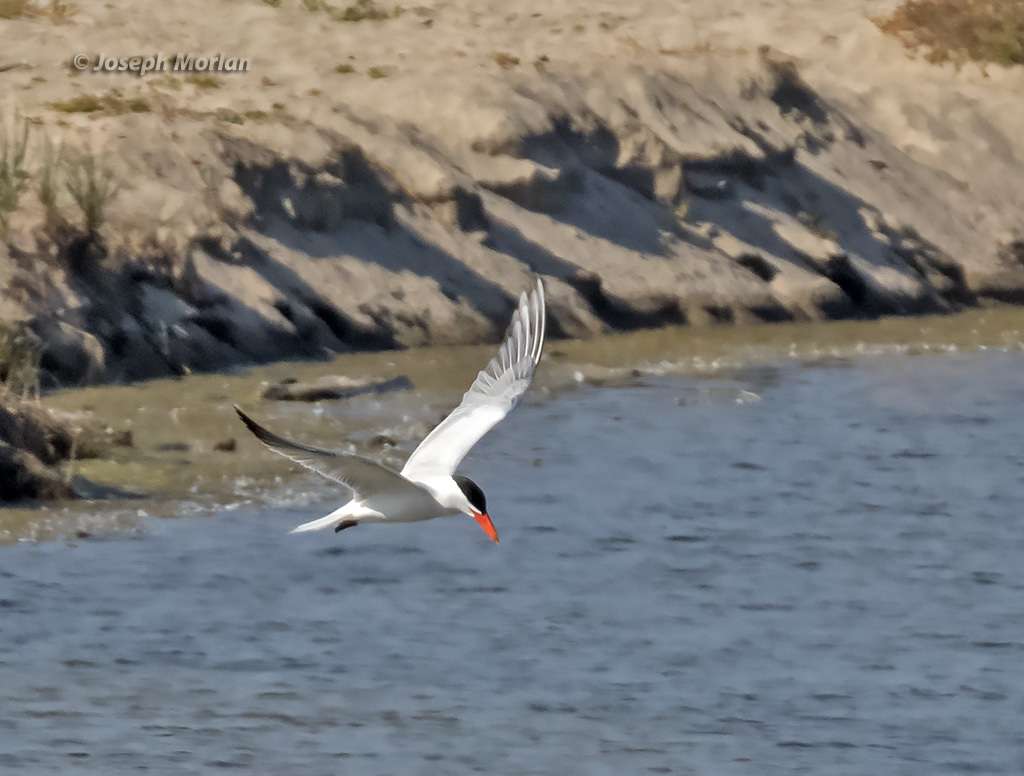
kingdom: Animalia
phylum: Chordata
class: Aves
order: Charadriiformes
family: Laridae
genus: Hydroprogne
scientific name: Hydroprogne caspia
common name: Caspian tern
